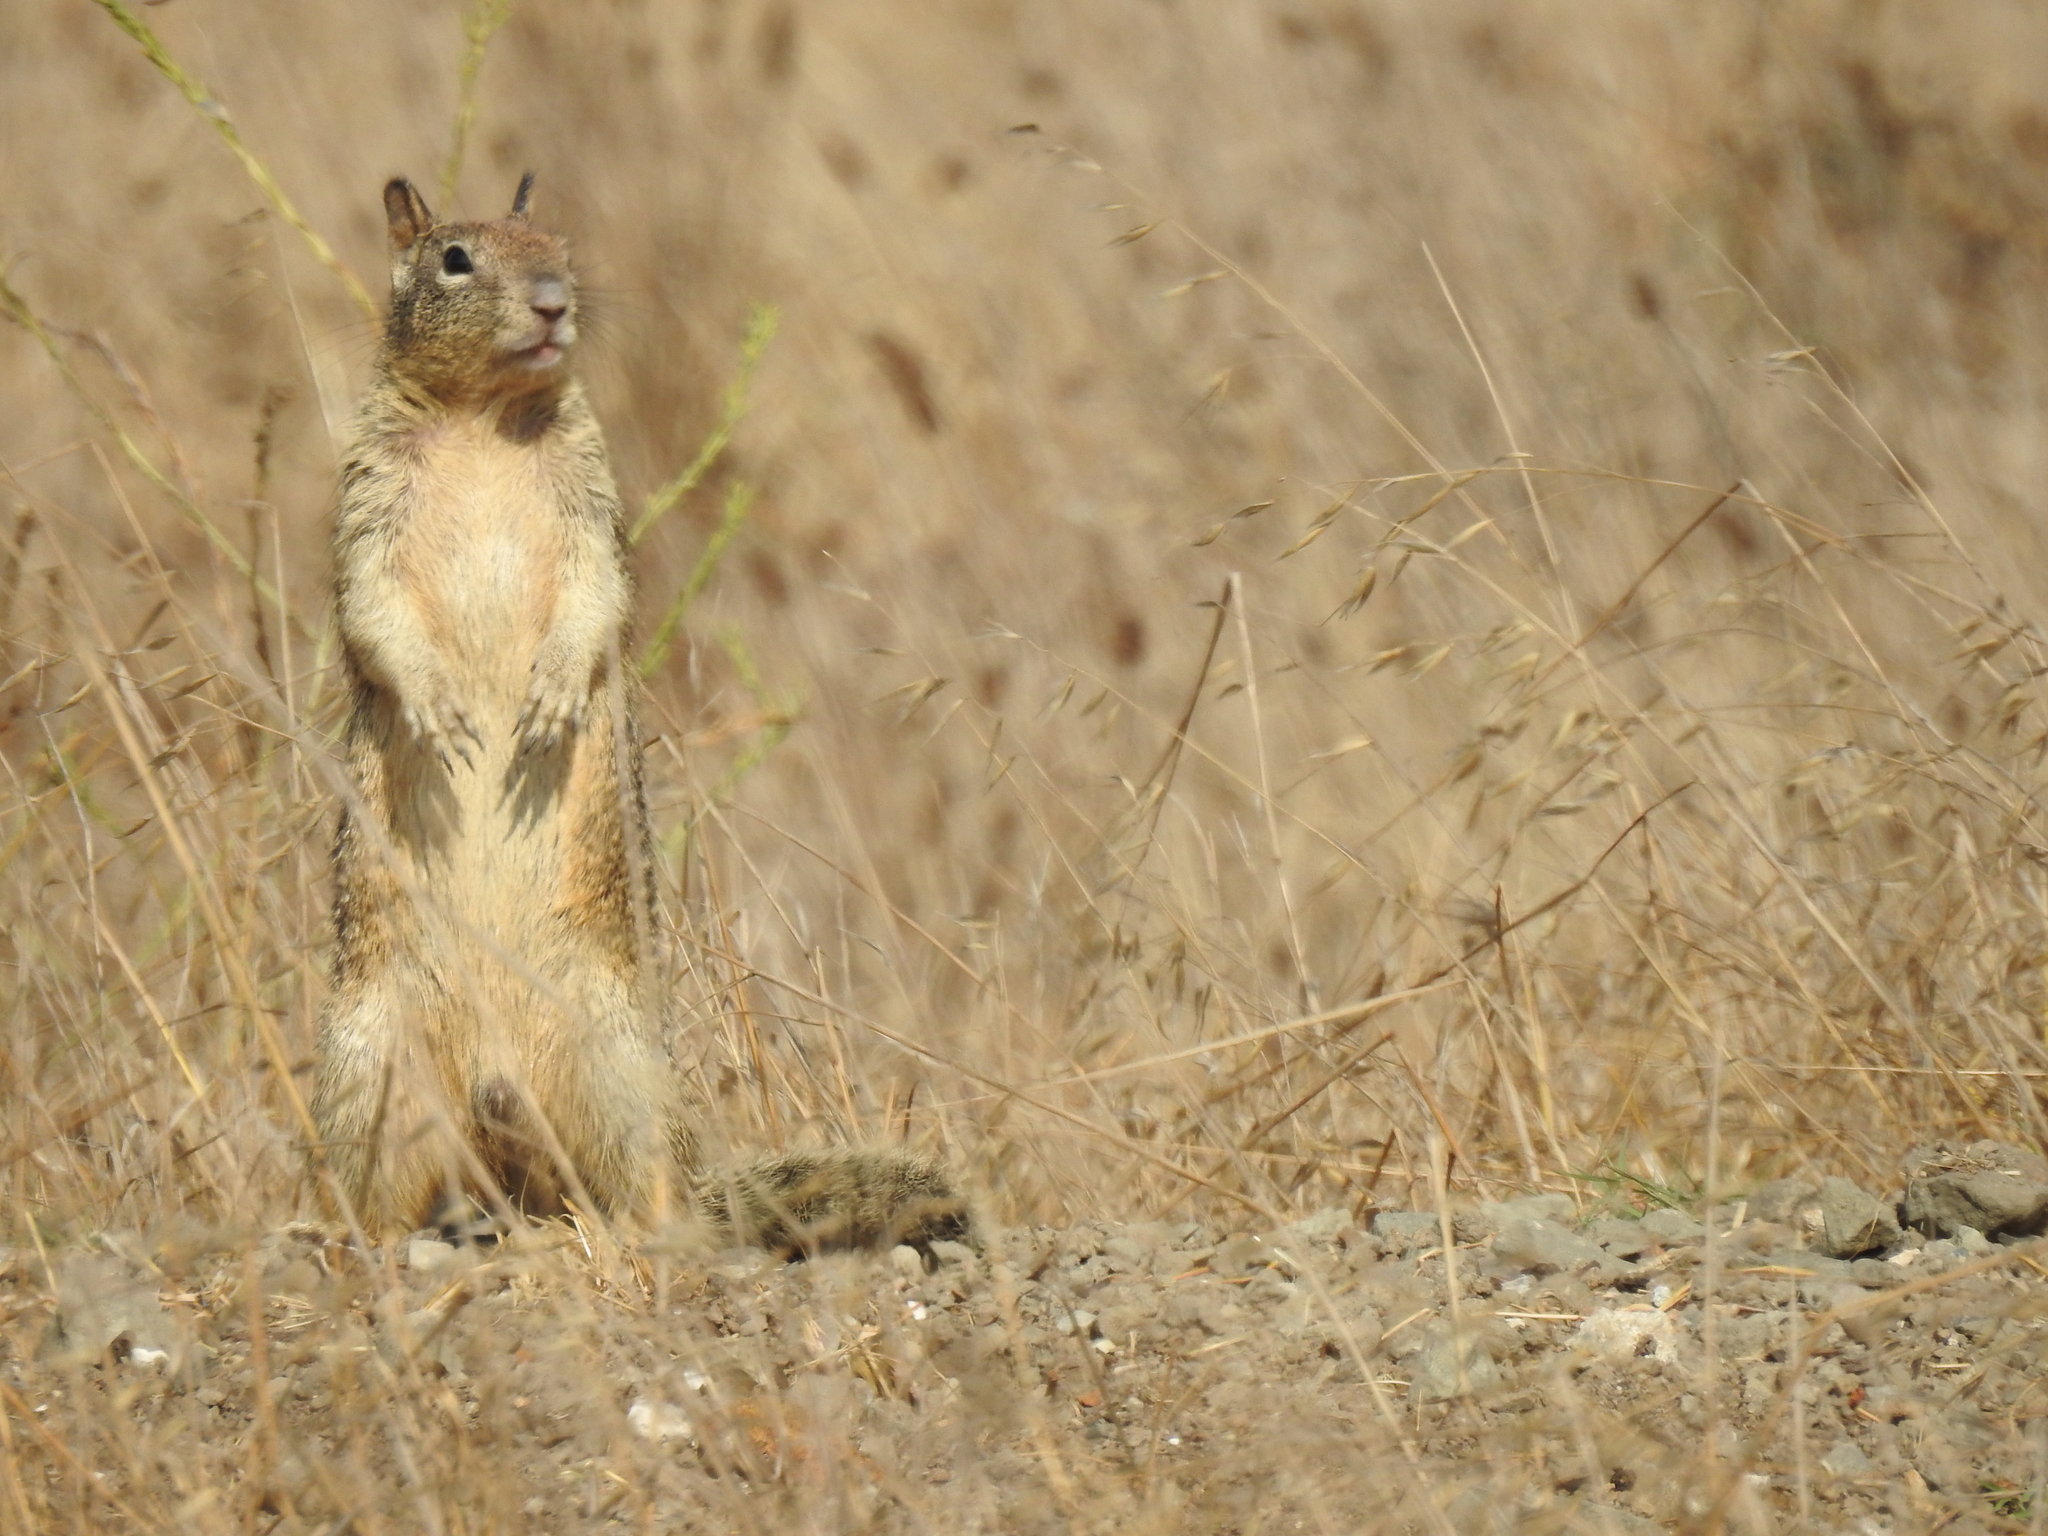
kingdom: Animalia
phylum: Chordata
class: Mammalia
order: Rodentia
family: Sciuridae
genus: Otospermophilus
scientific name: Otospermophilus beecheyi
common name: California ground squirrel
